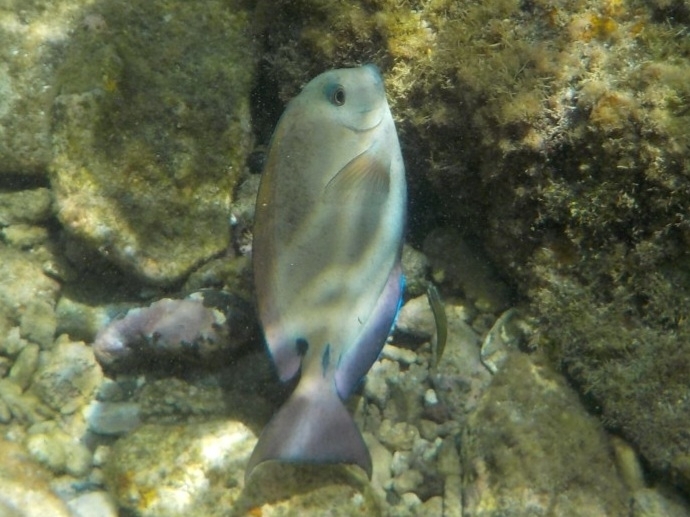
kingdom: Animalia
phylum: Chordata
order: Perciformes
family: Acanthuridae
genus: Acanthurus
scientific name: Acanthurus nigrofuscus
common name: Blackspot surgeonfish
